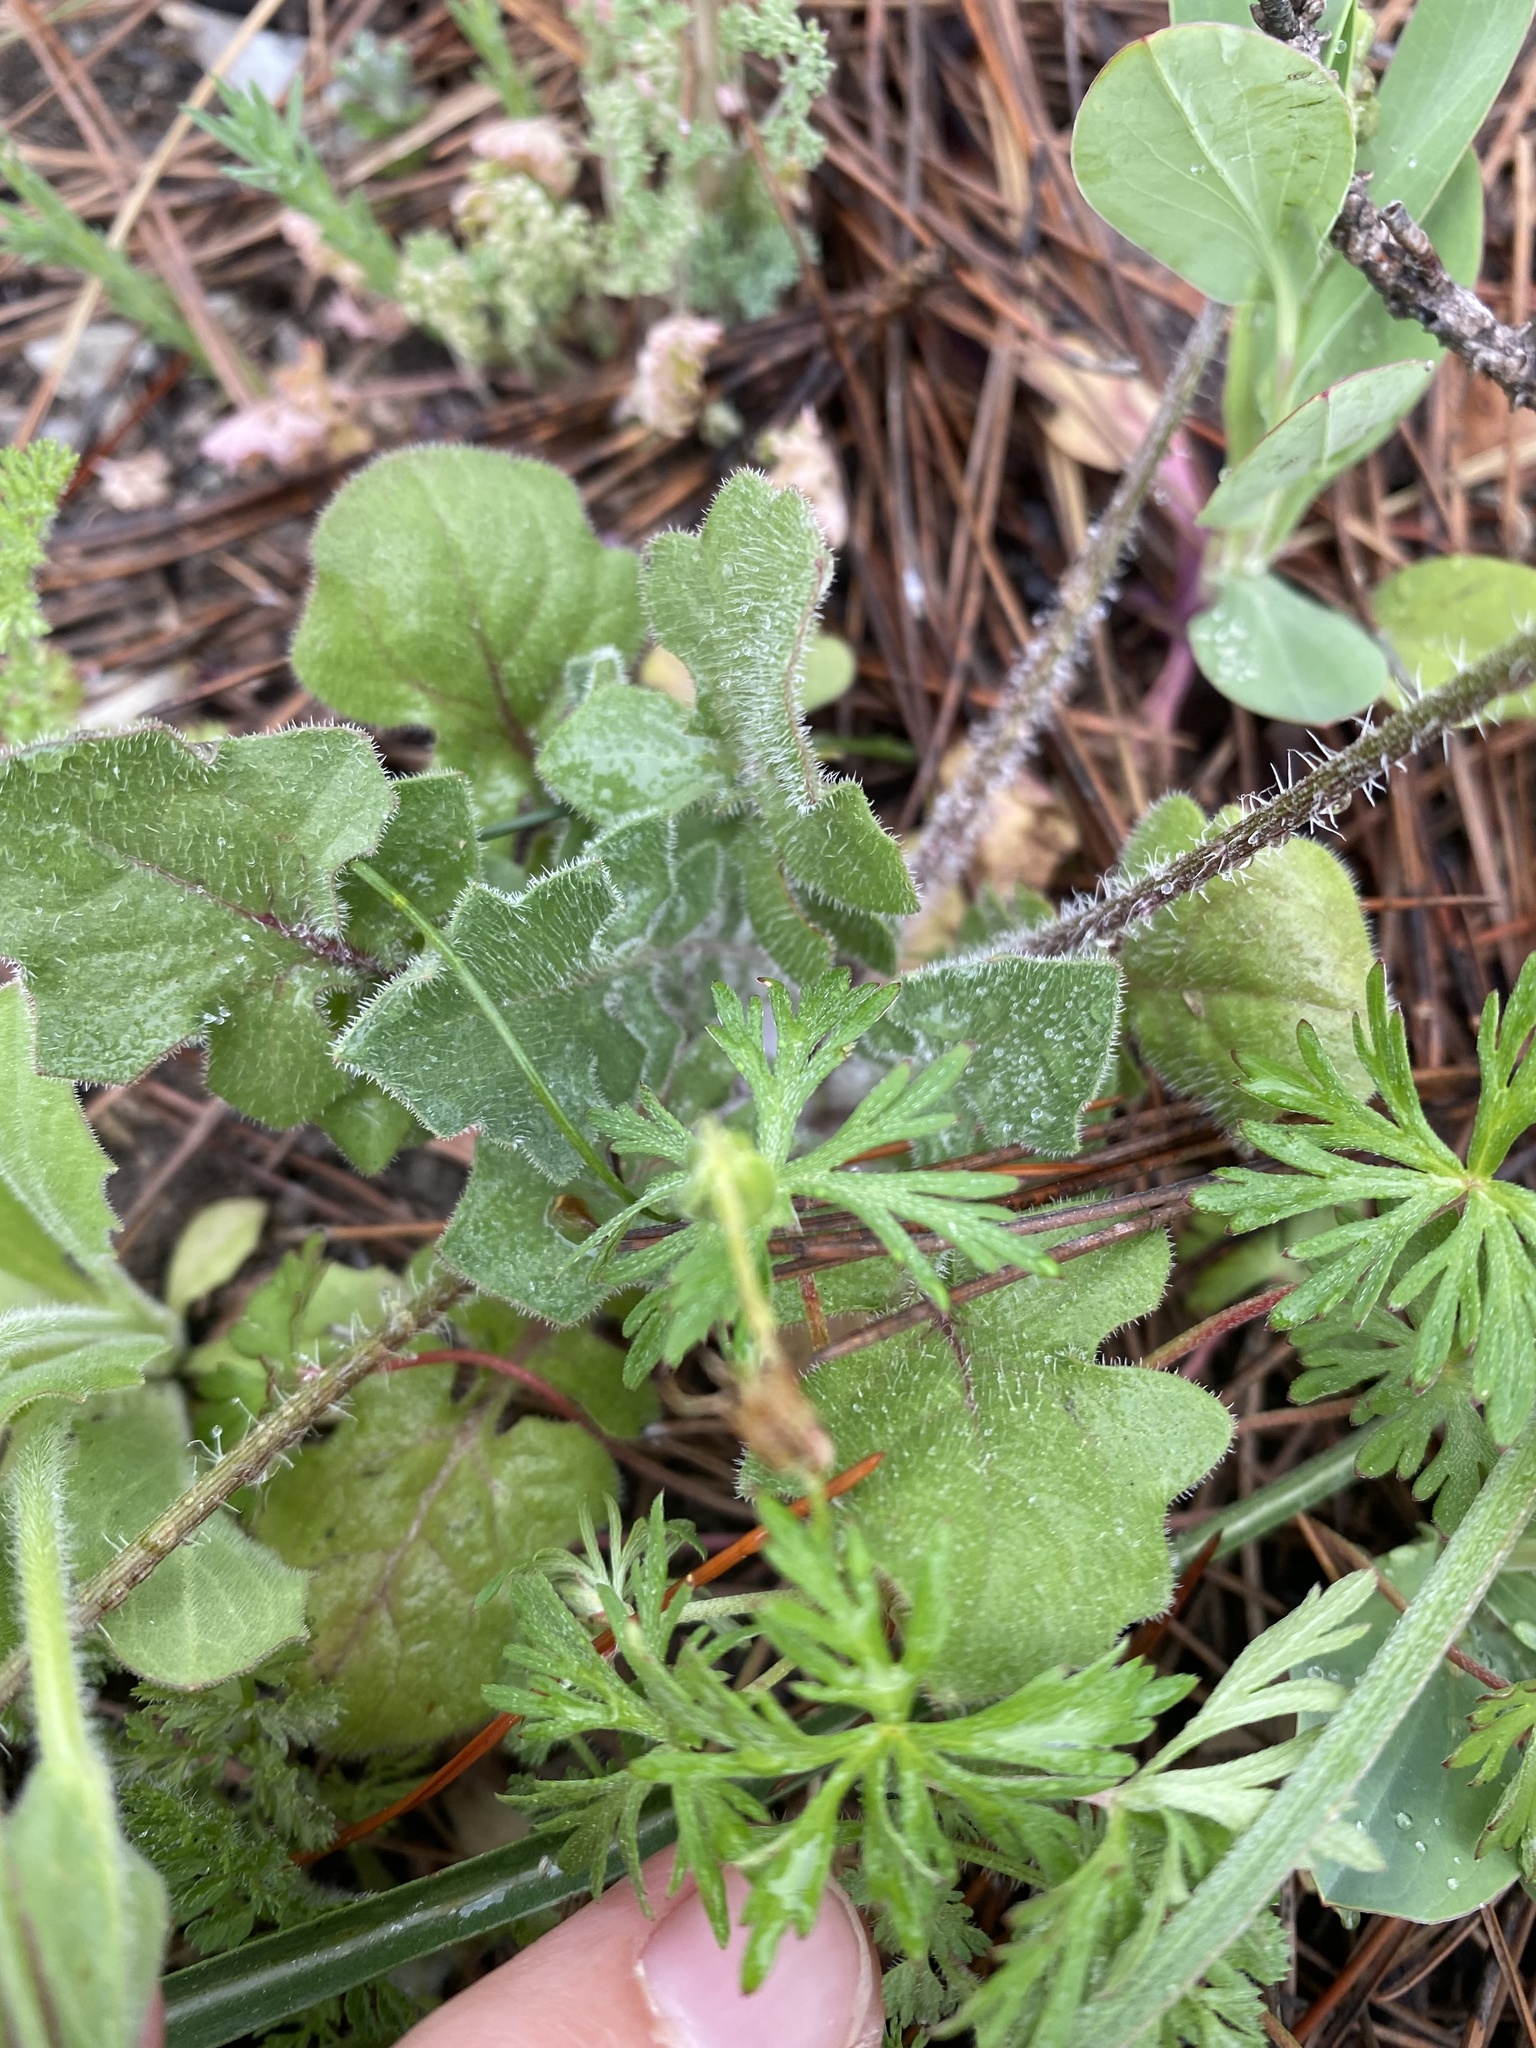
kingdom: Plantae
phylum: Tracheophyta
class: Magnoliopsida
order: Asterales
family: Asteraceae
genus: Crepis
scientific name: Crepis sancta
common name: Hawk's-beard
